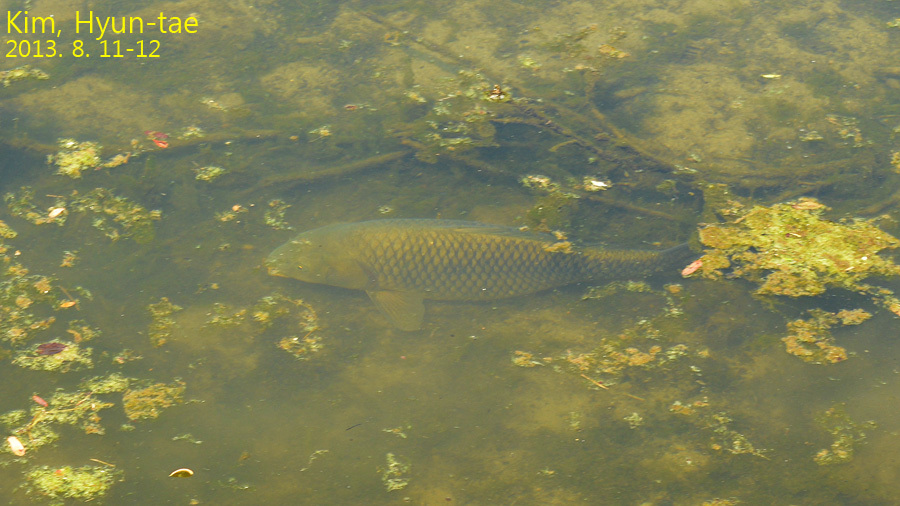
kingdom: Animalia
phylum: Chordata
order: Cypriniformes
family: Cyprinidae
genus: Cyprinus
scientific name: Cyprinus rubrofuscus
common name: Koi
